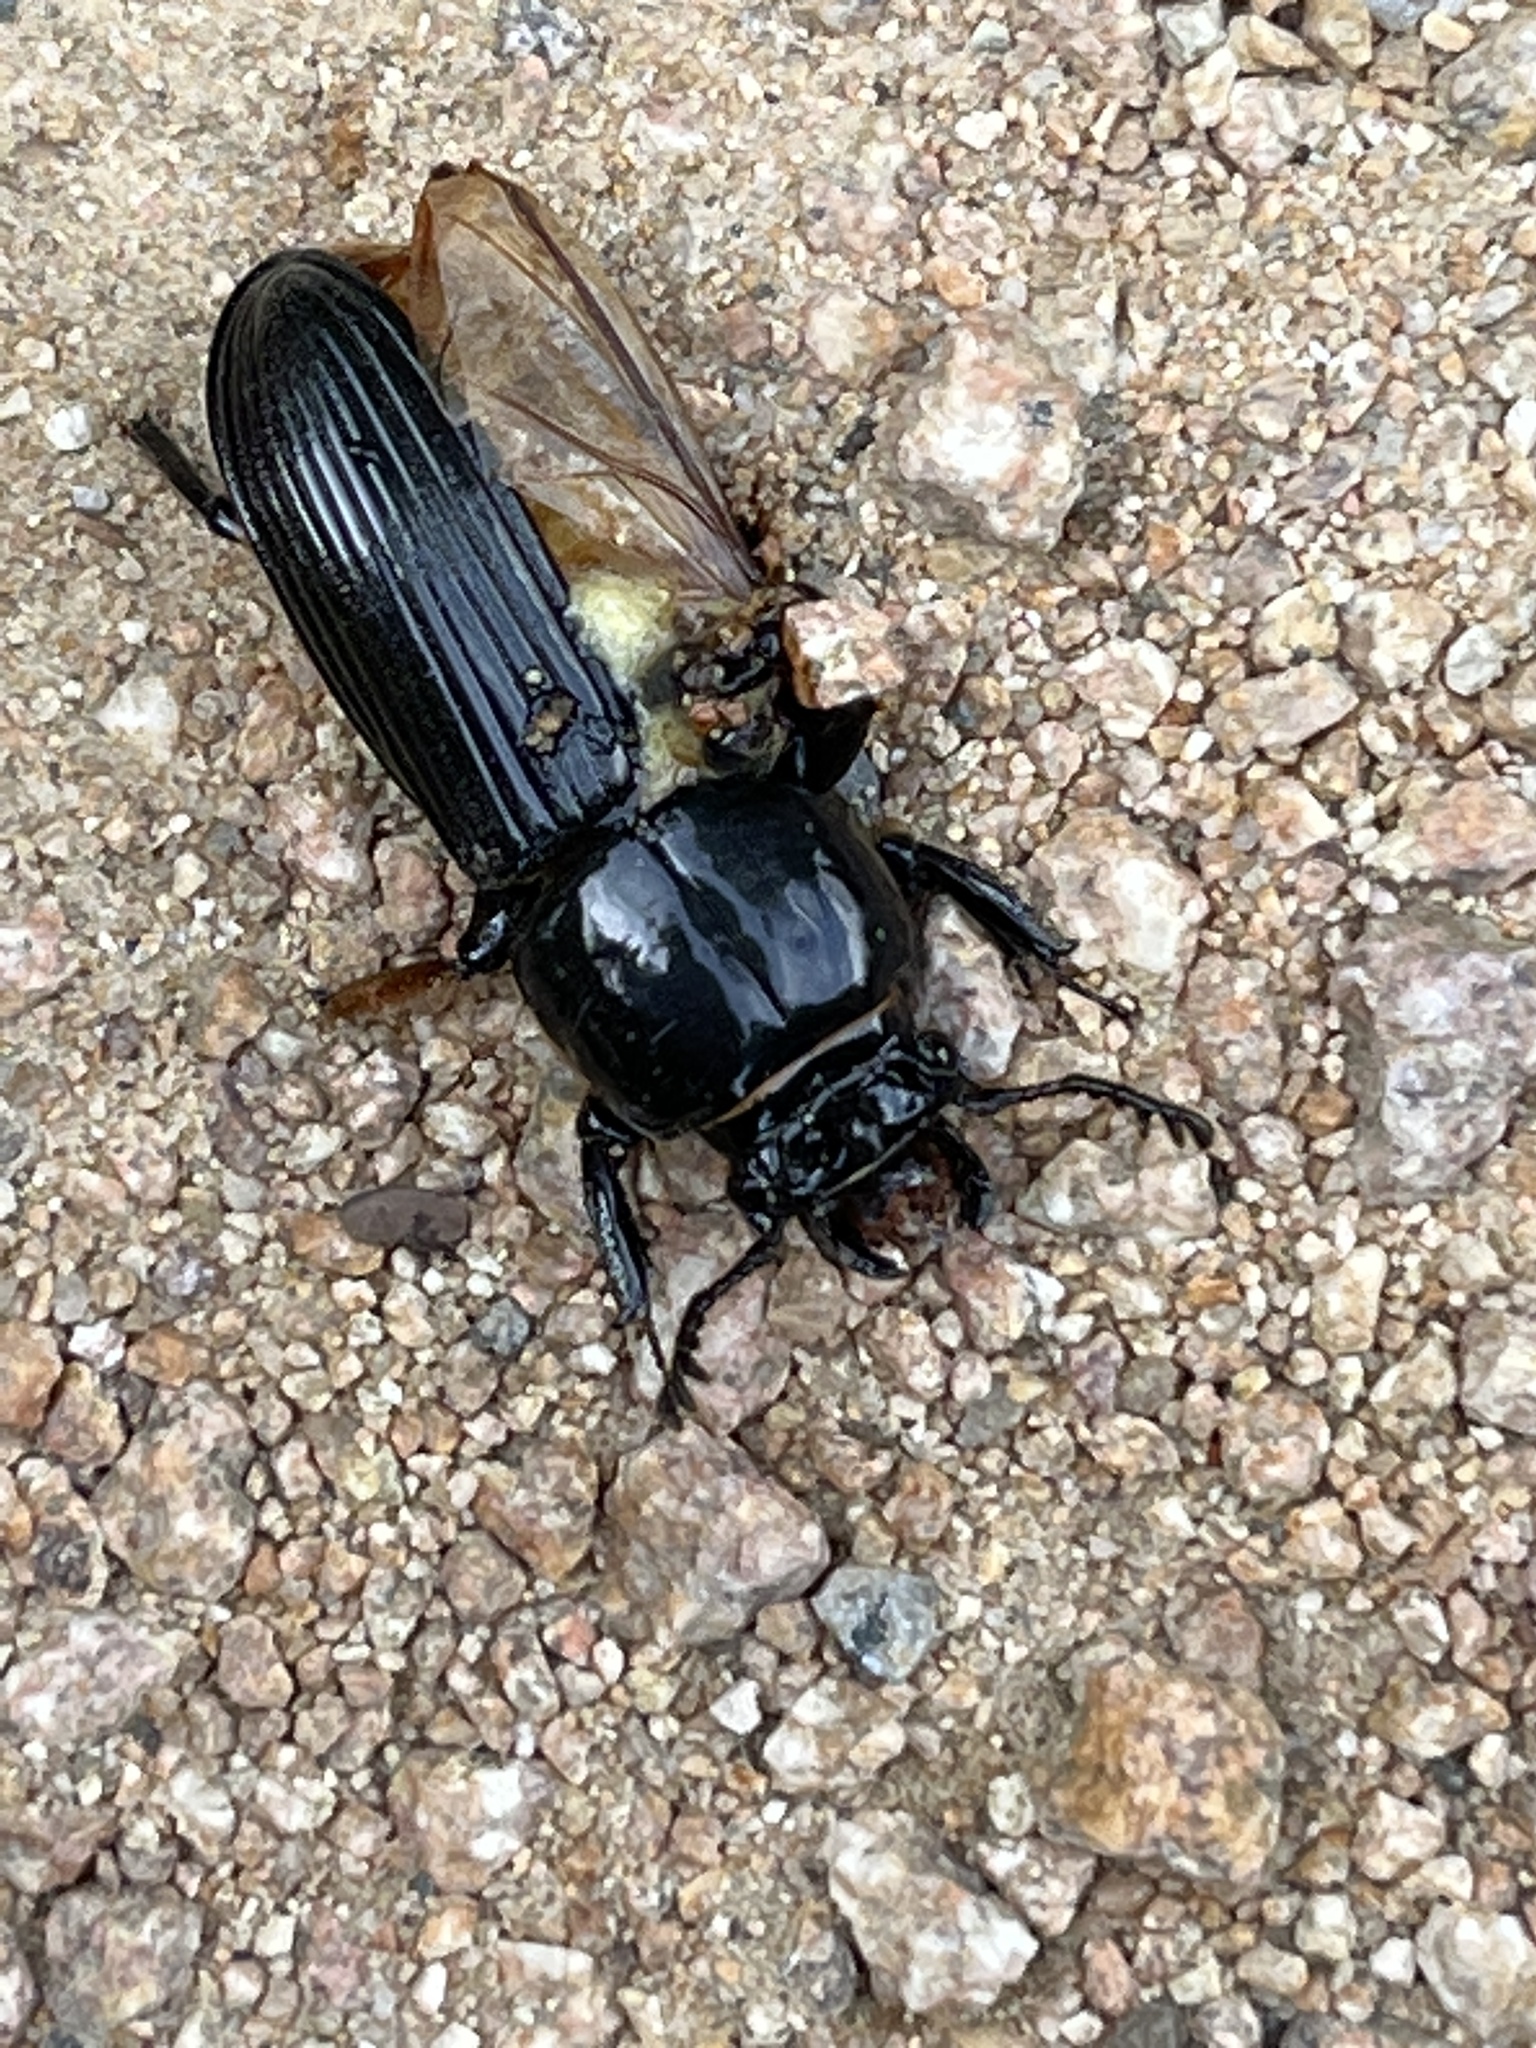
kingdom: Animalia
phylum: Arthropoda
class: Insecta
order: Coleoptera
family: Passalidae
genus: Odontotaenius
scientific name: Odontotaenius disjunctus
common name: Patent leather beetle
